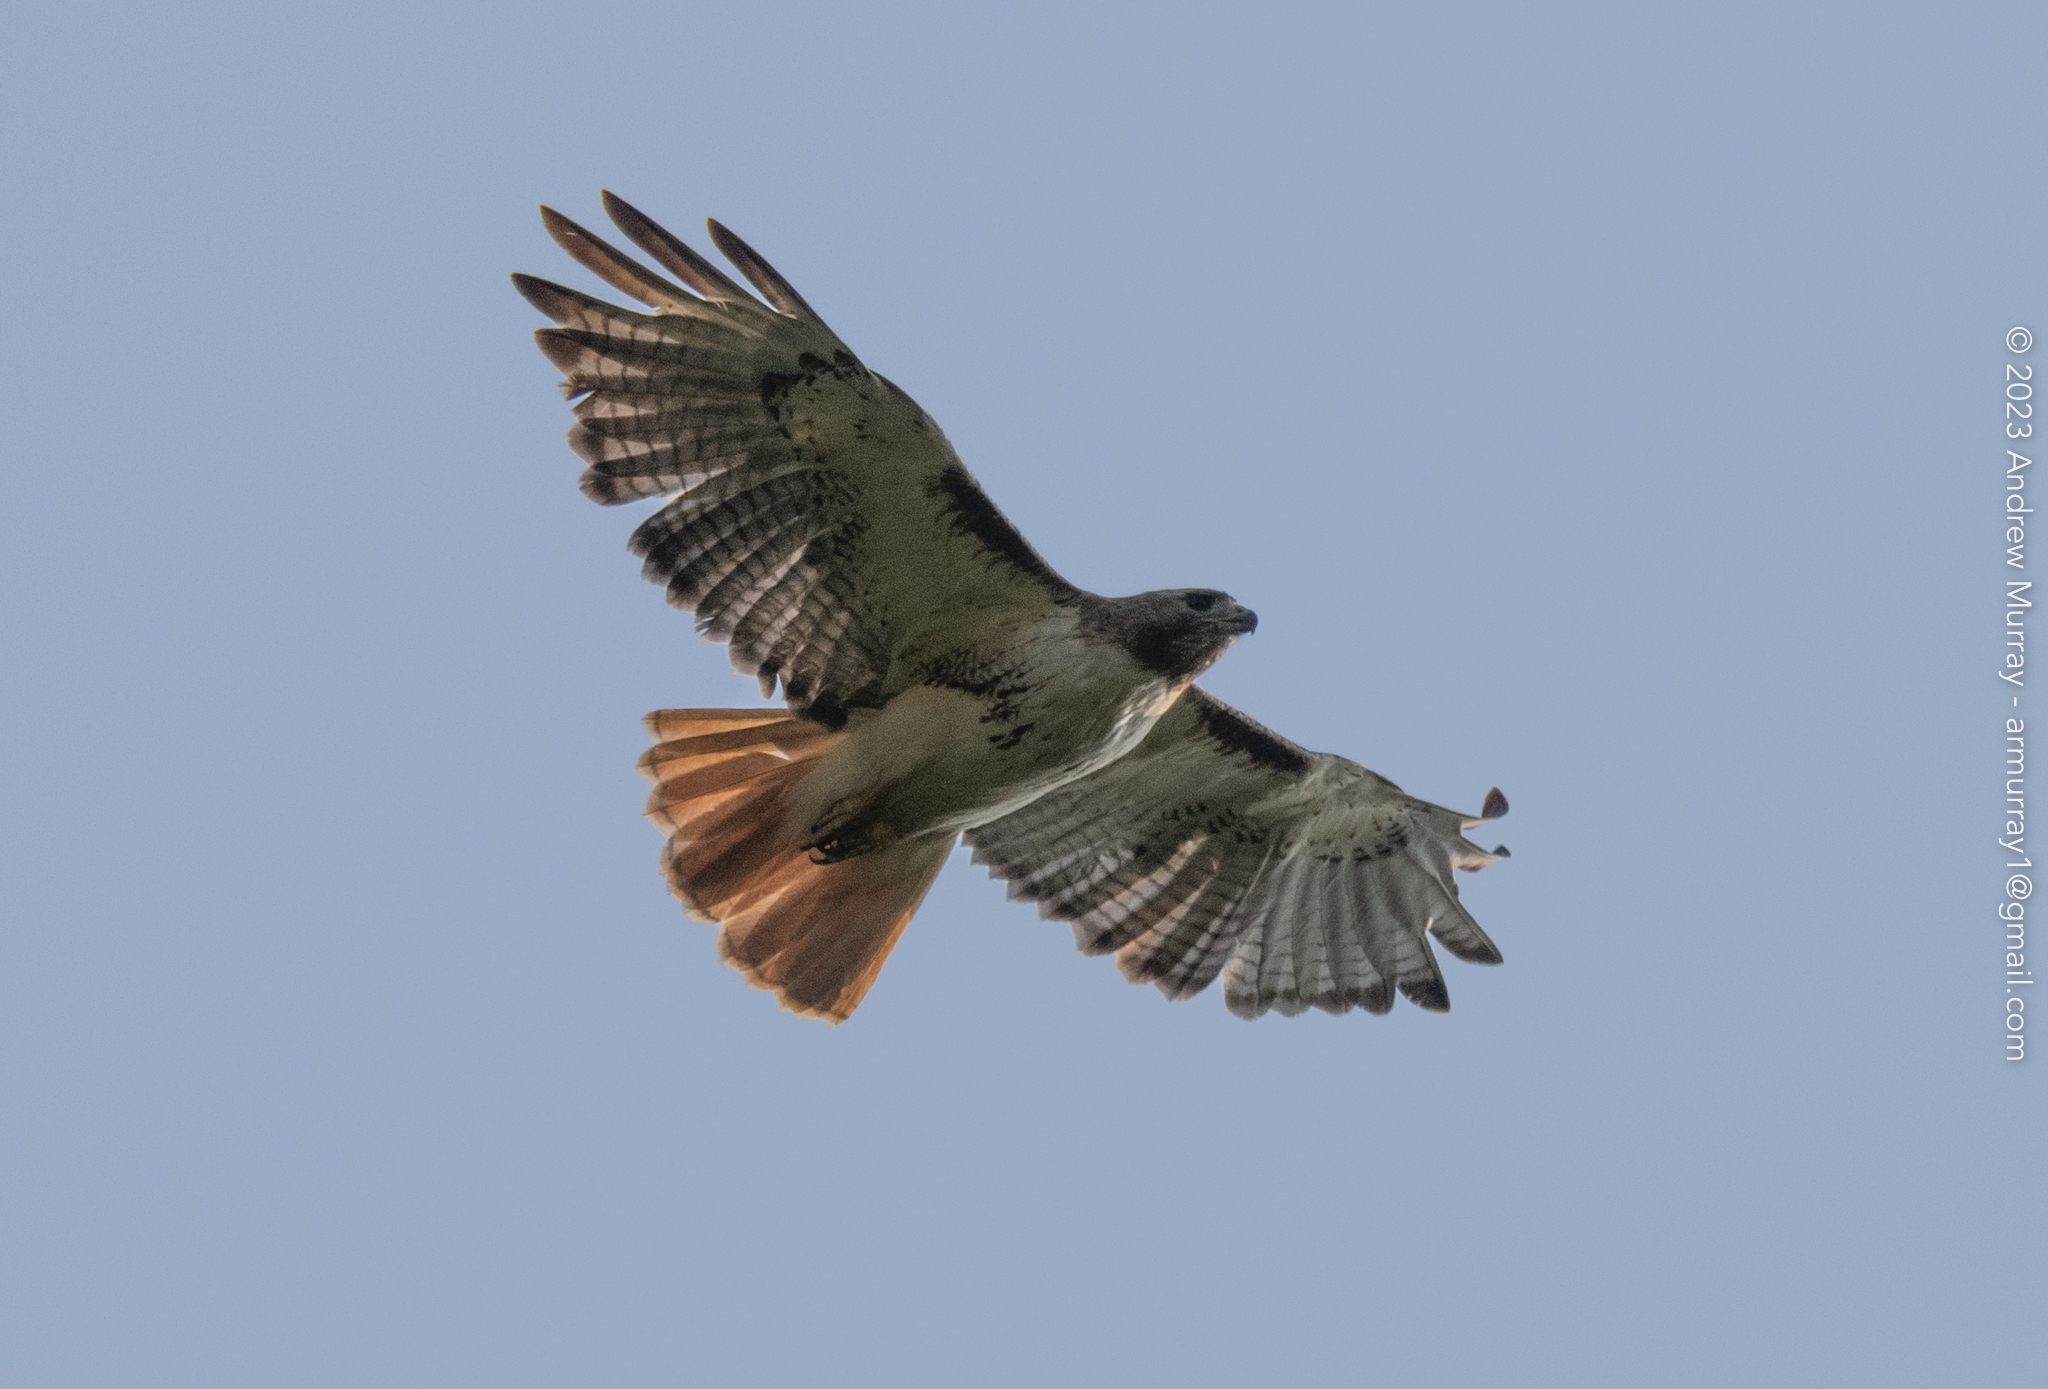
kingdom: Animalia
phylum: Chordata
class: Aves
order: Accipitriformes
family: Accipitridae
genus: Buteo
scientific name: Buteo jamaicensis
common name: Red-tailed hawk
